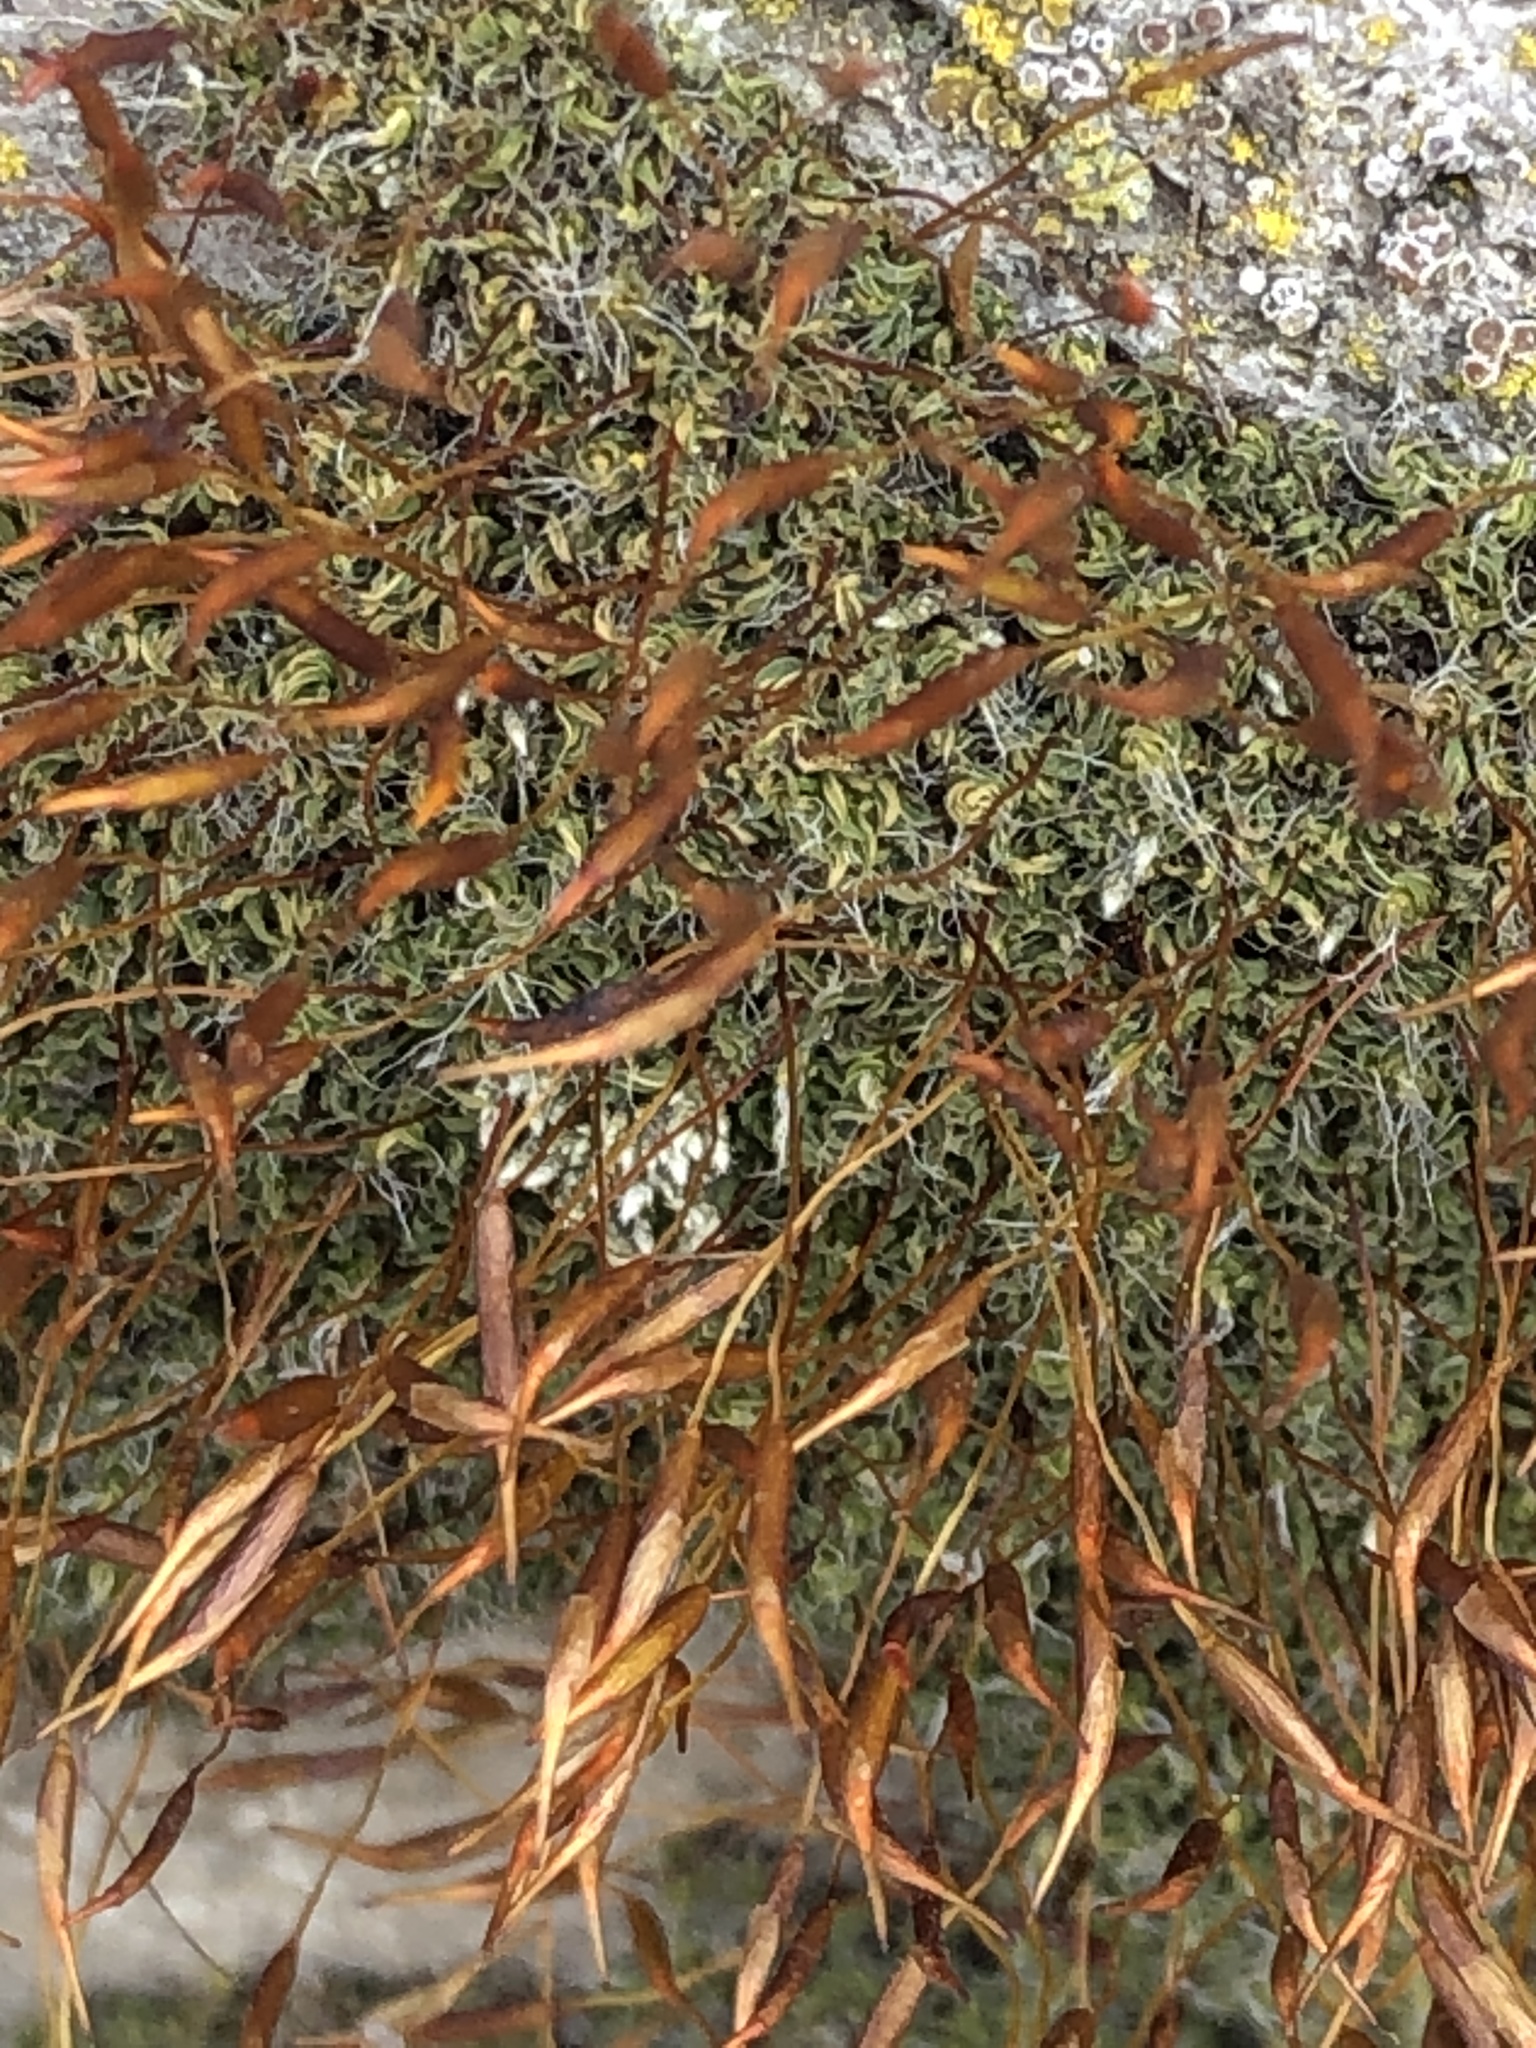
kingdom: Plantae
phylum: Bryophyta
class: Bryopsida
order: Pottiales
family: Pottiaceae
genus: Tortula
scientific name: Tortula muralis
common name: Wall screw-moss
